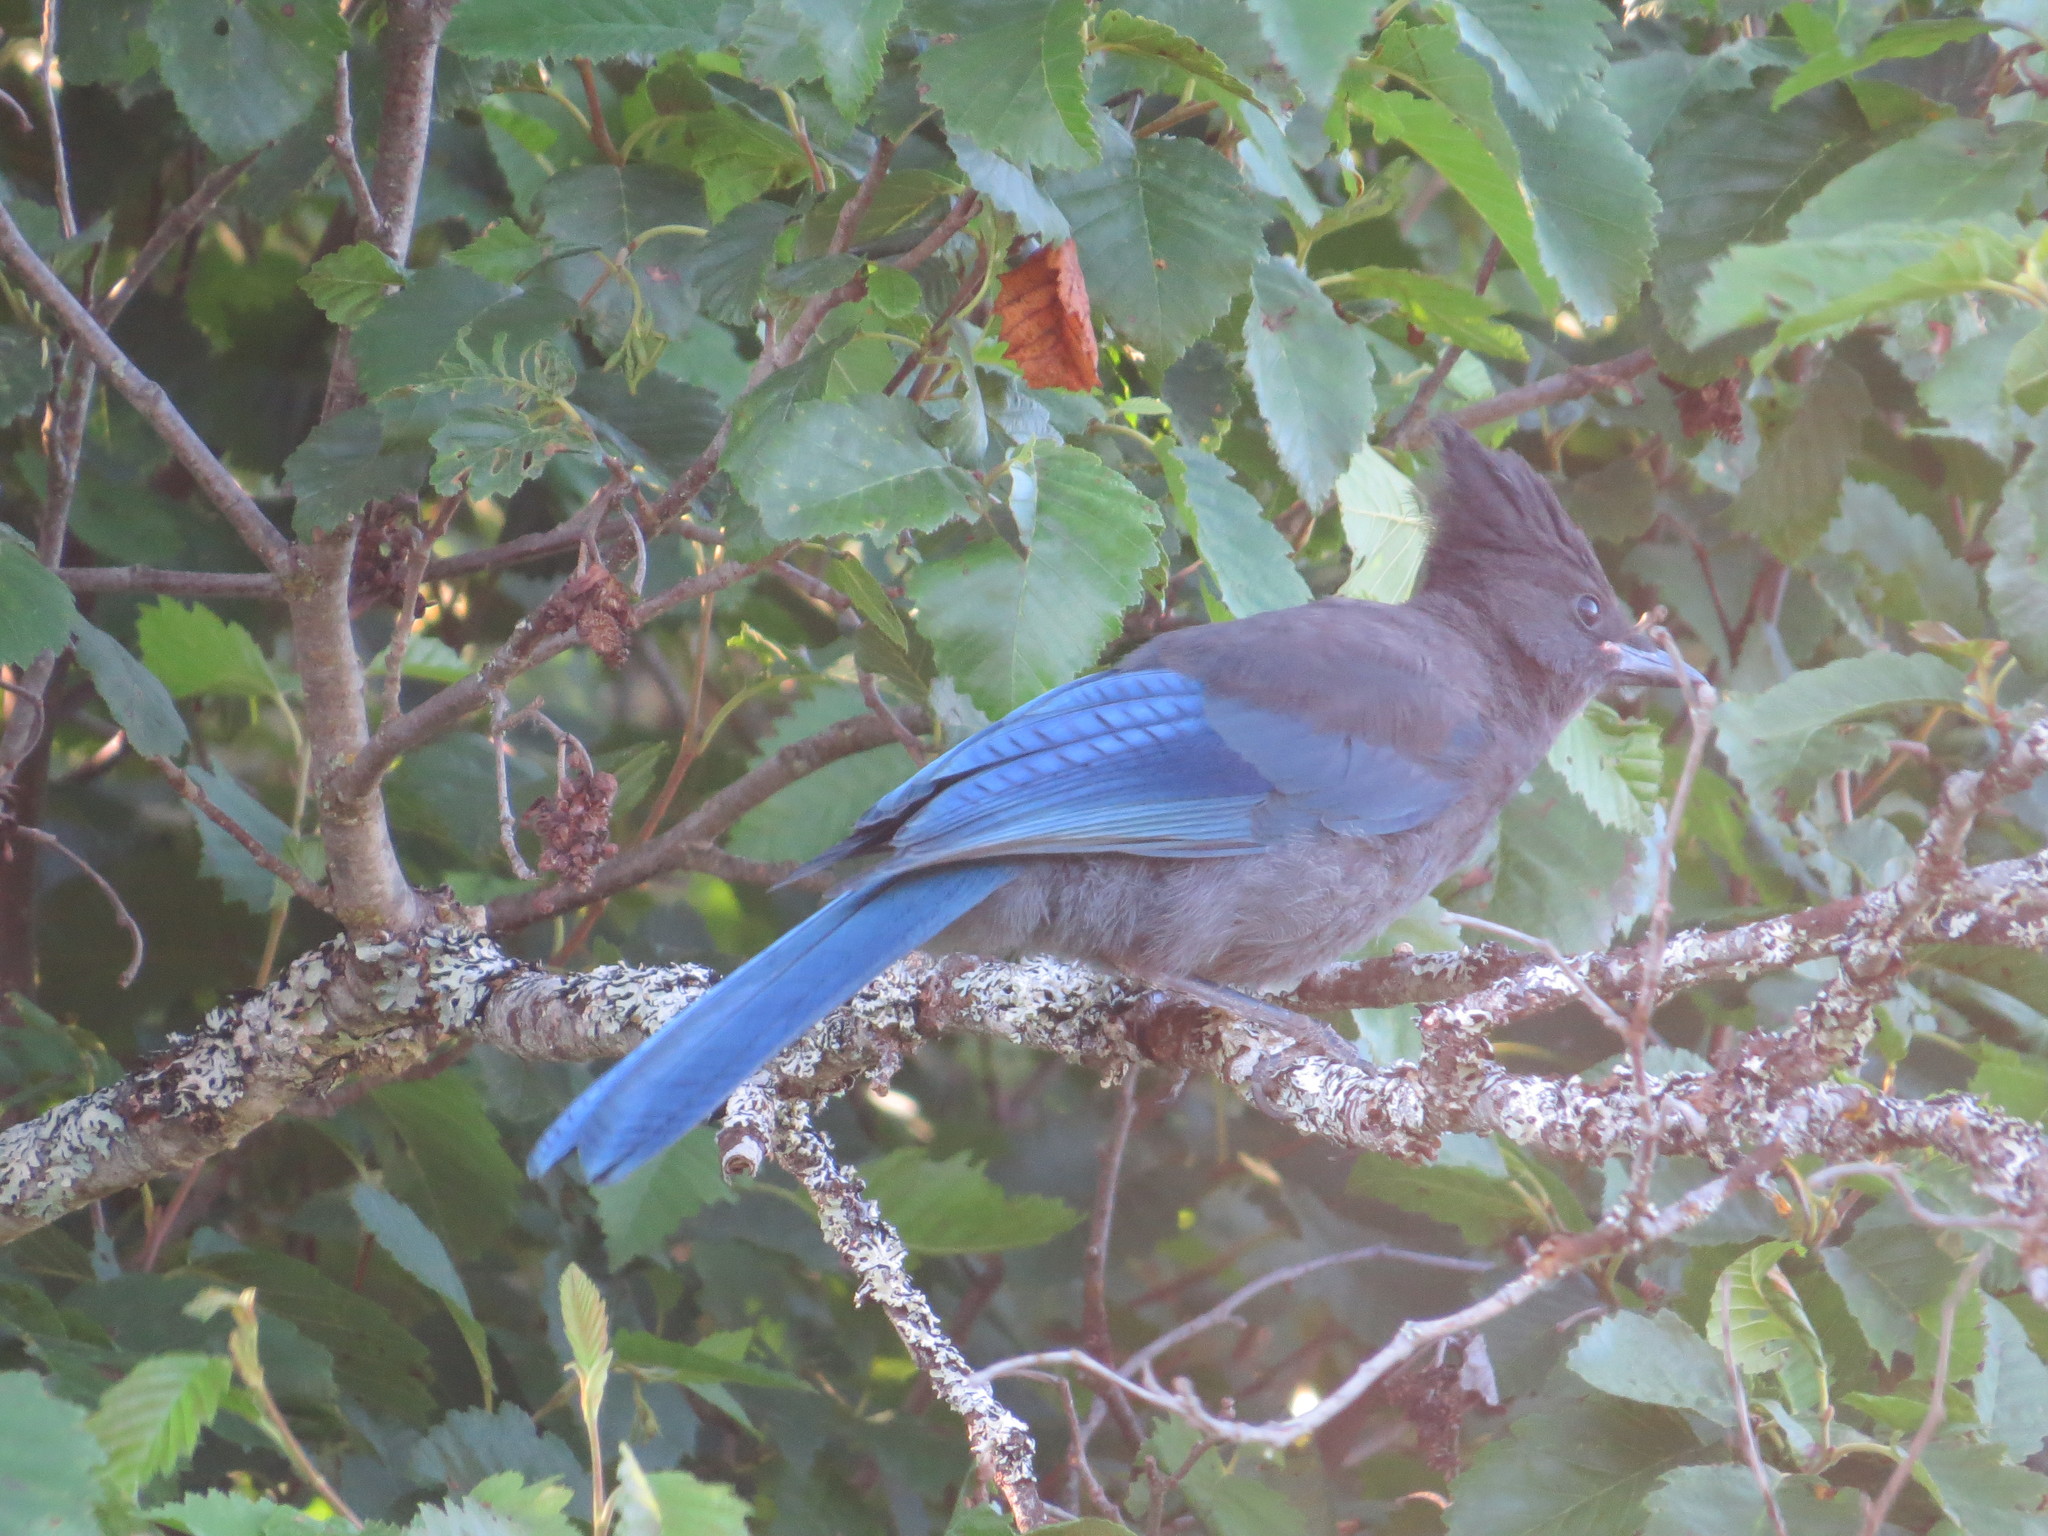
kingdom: Animalia
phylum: Chordata
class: Aves
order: Passeriformes
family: Corvidae
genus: Cyanocitta
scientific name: Cyanocitta stelleri
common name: Steller's jay
